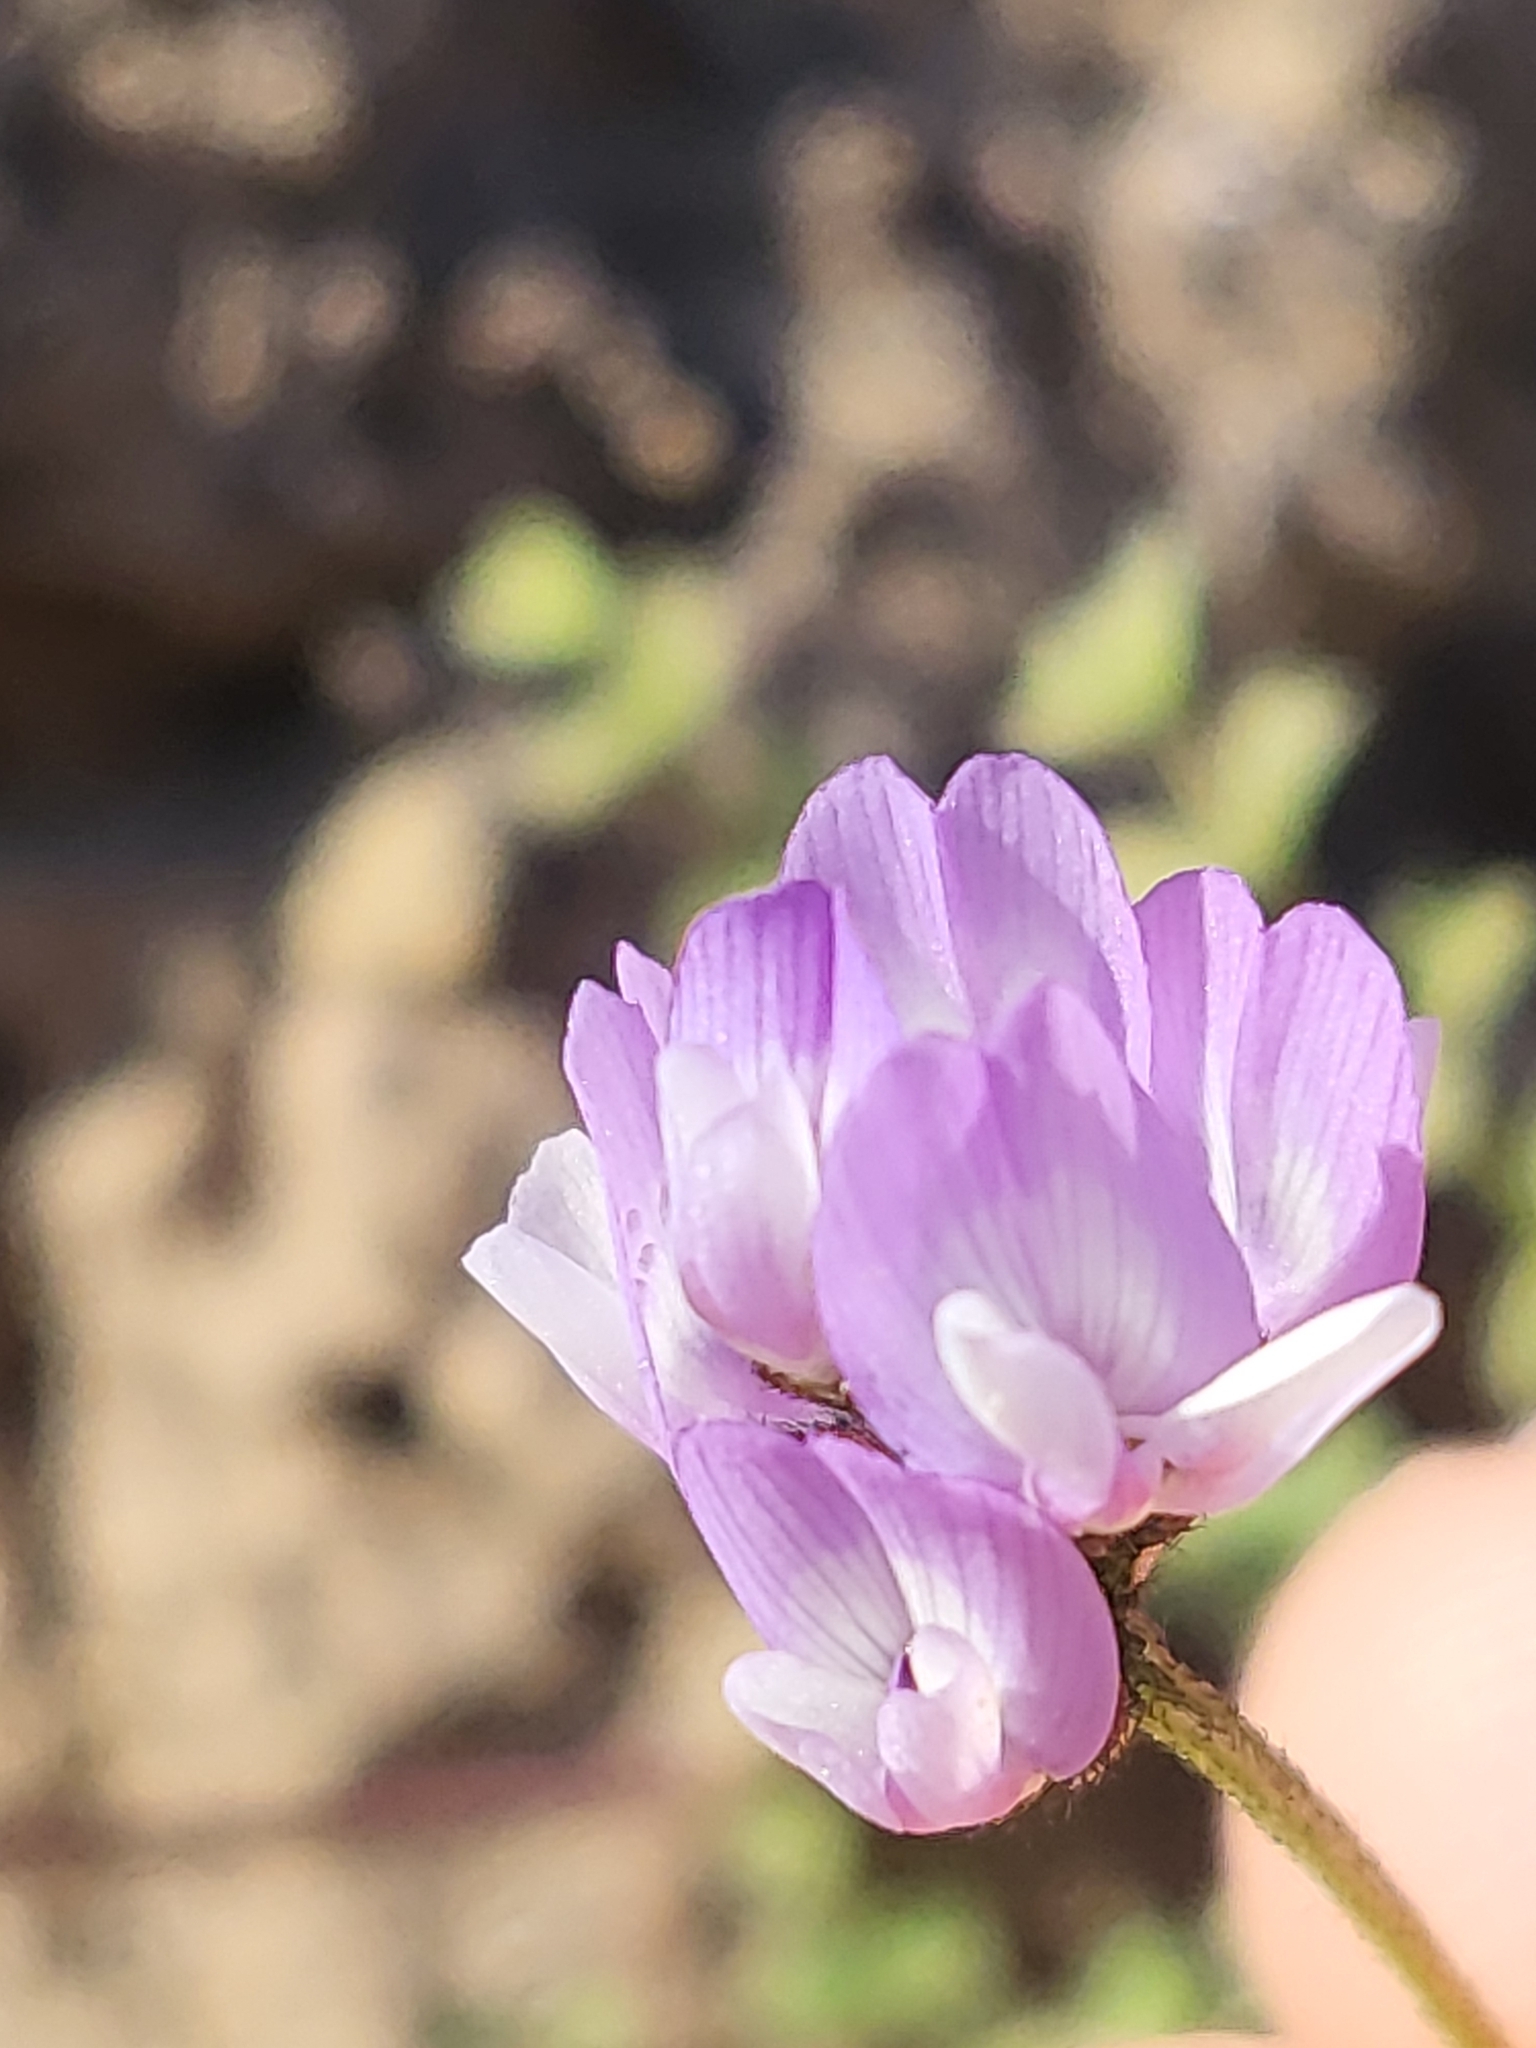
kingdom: Plantae
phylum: Tracheophyta
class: Magnoliopsida
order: Fabales
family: Fabaceae
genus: Astragalus
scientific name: Astragalus gambelianus
